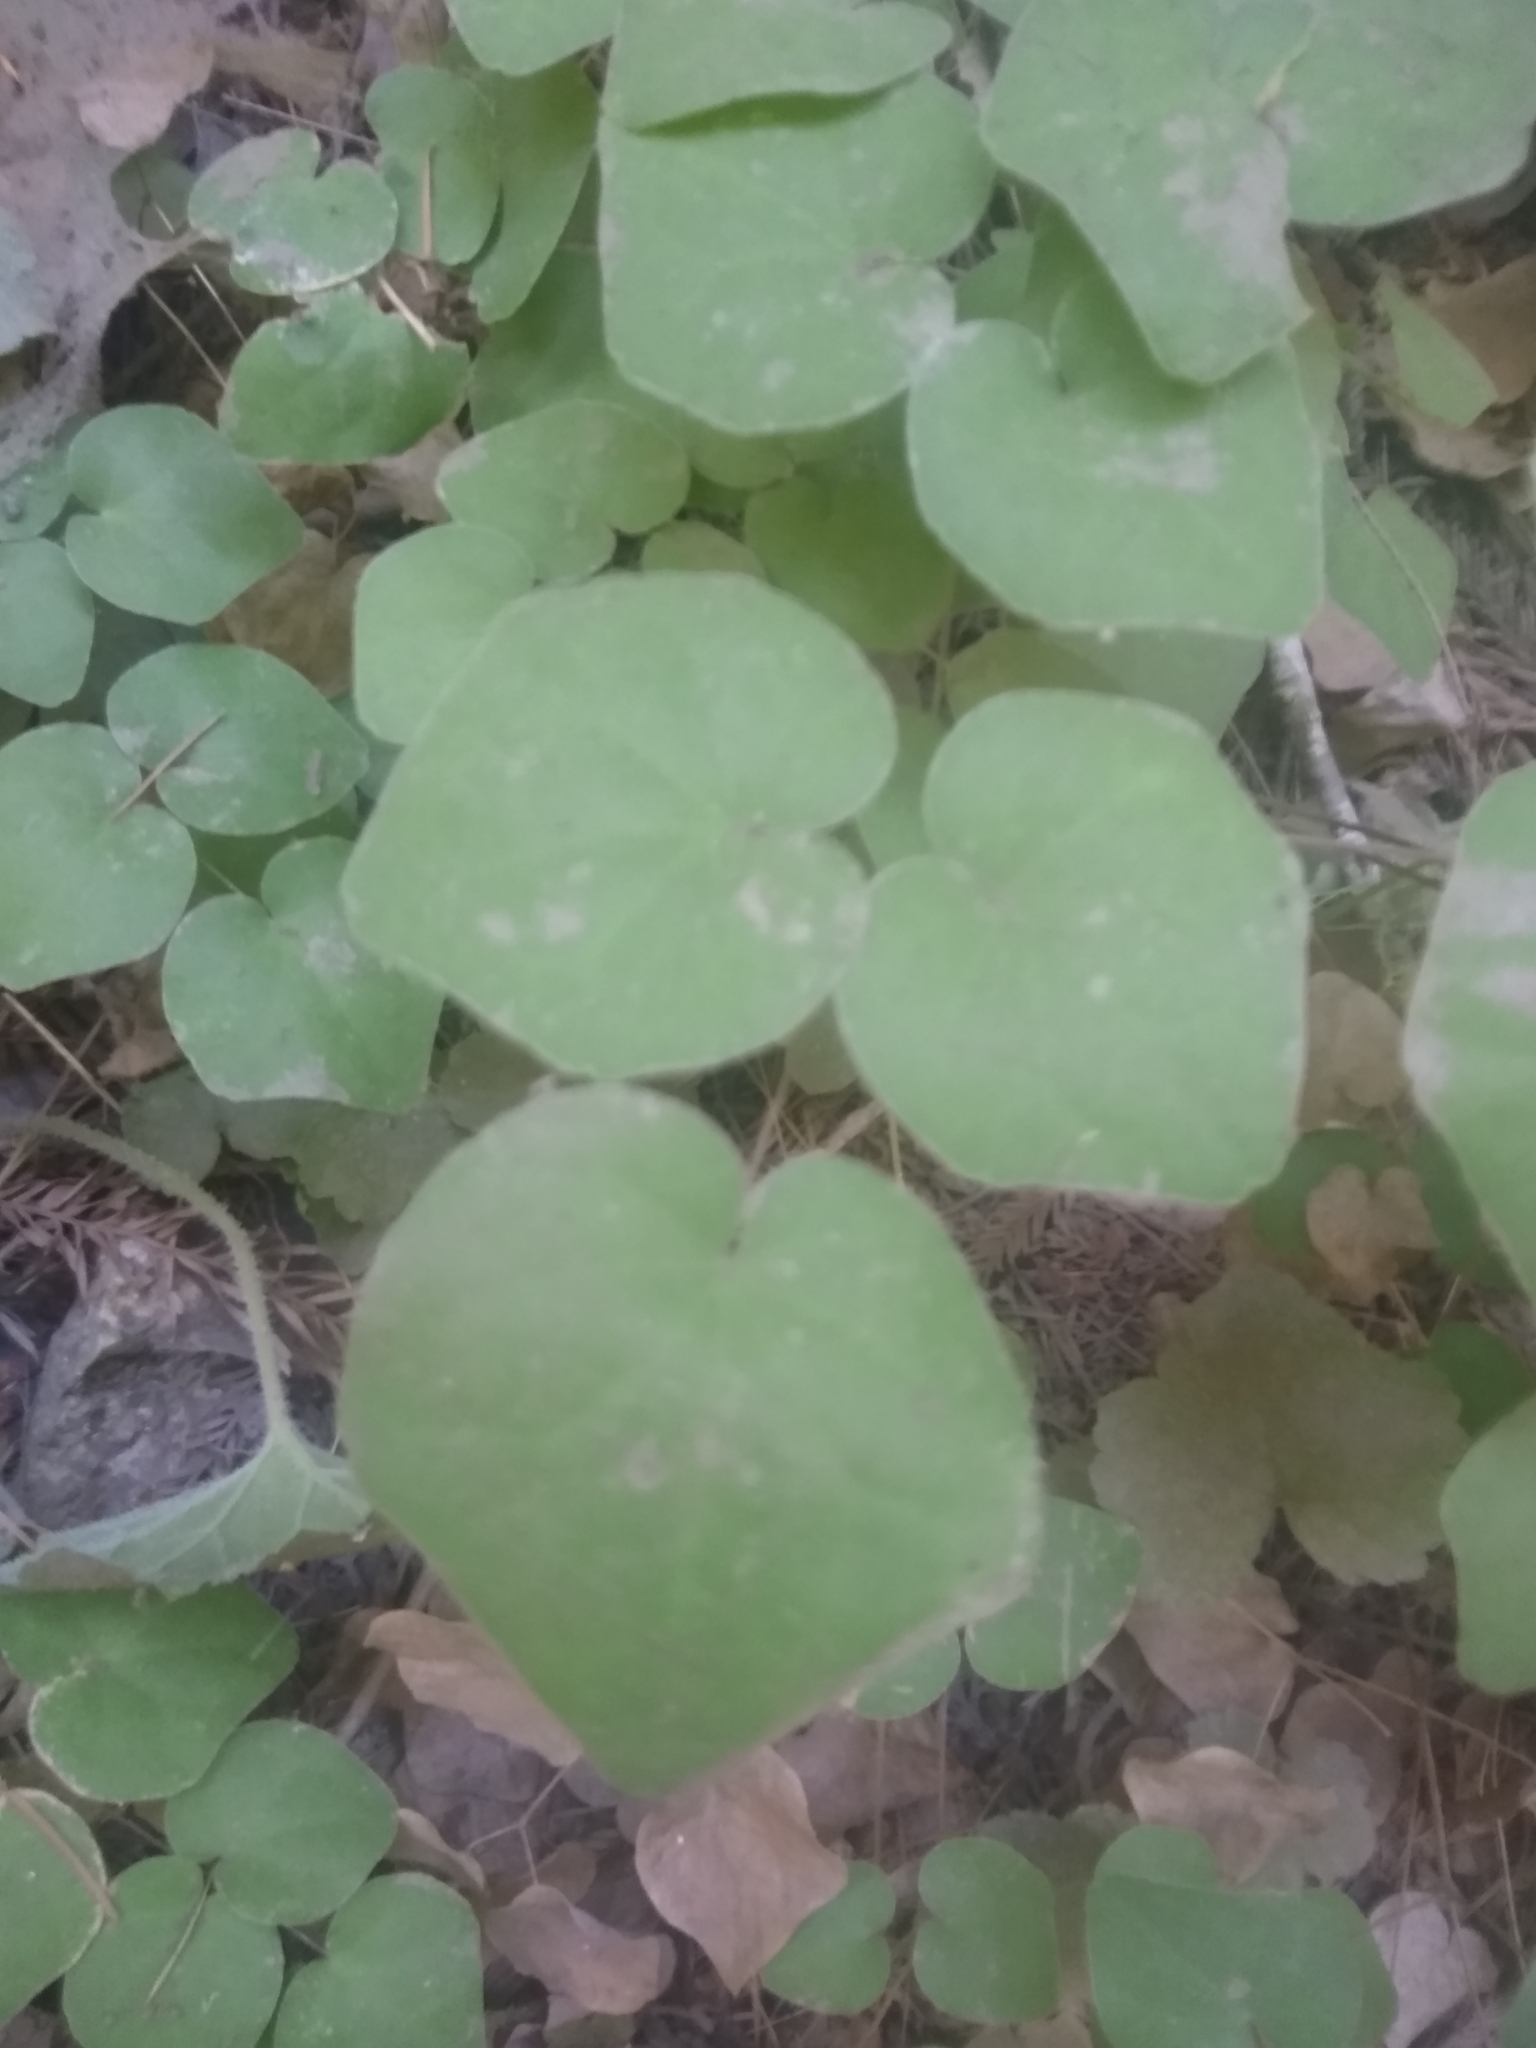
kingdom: Plantae
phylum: Tracheophyta
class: Magnoliopsida
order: Ranunculales
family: Berberidaceae
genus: Vancouveria
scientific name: Vancouveria planipetala
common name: Redwood-ivy
